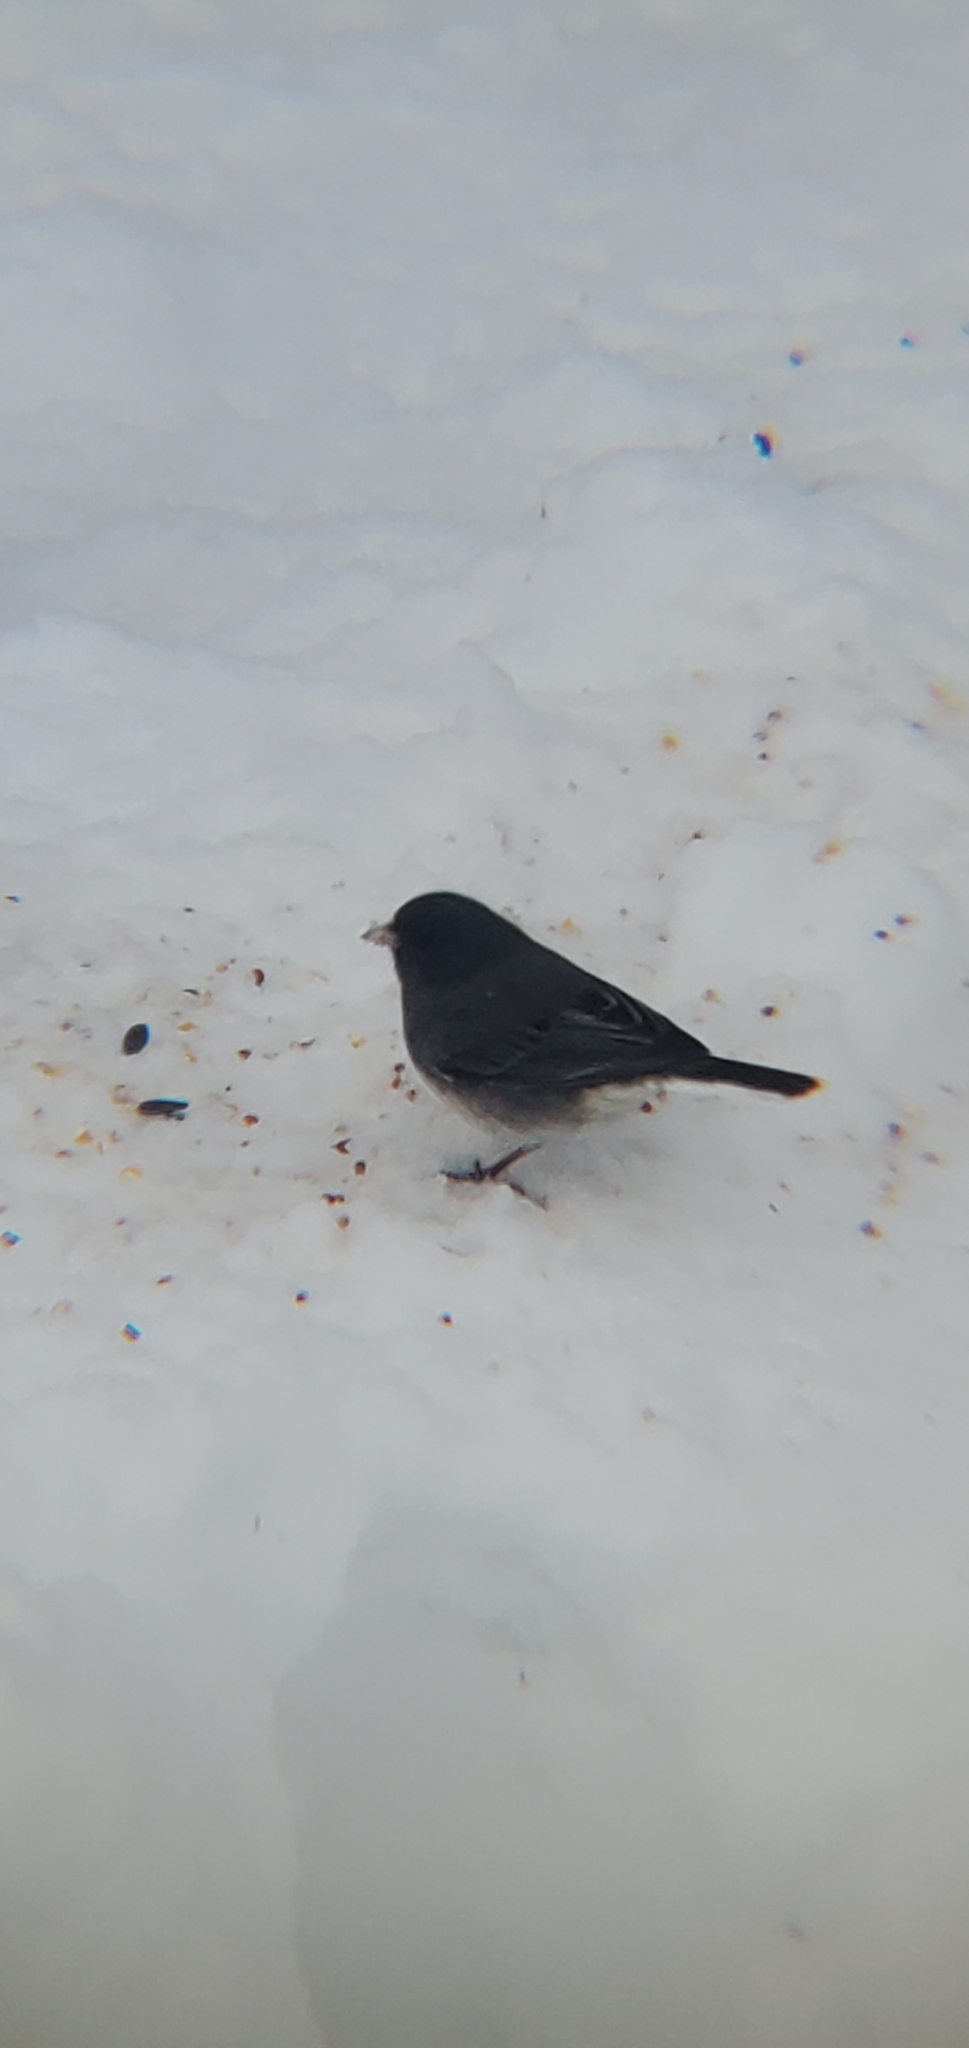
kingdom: Animalia
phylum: Chordata
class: Aves
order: Passeriformes
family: Passerellidae
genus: Junco
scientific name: Junco hyemalis
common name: Dark-eyed junco
